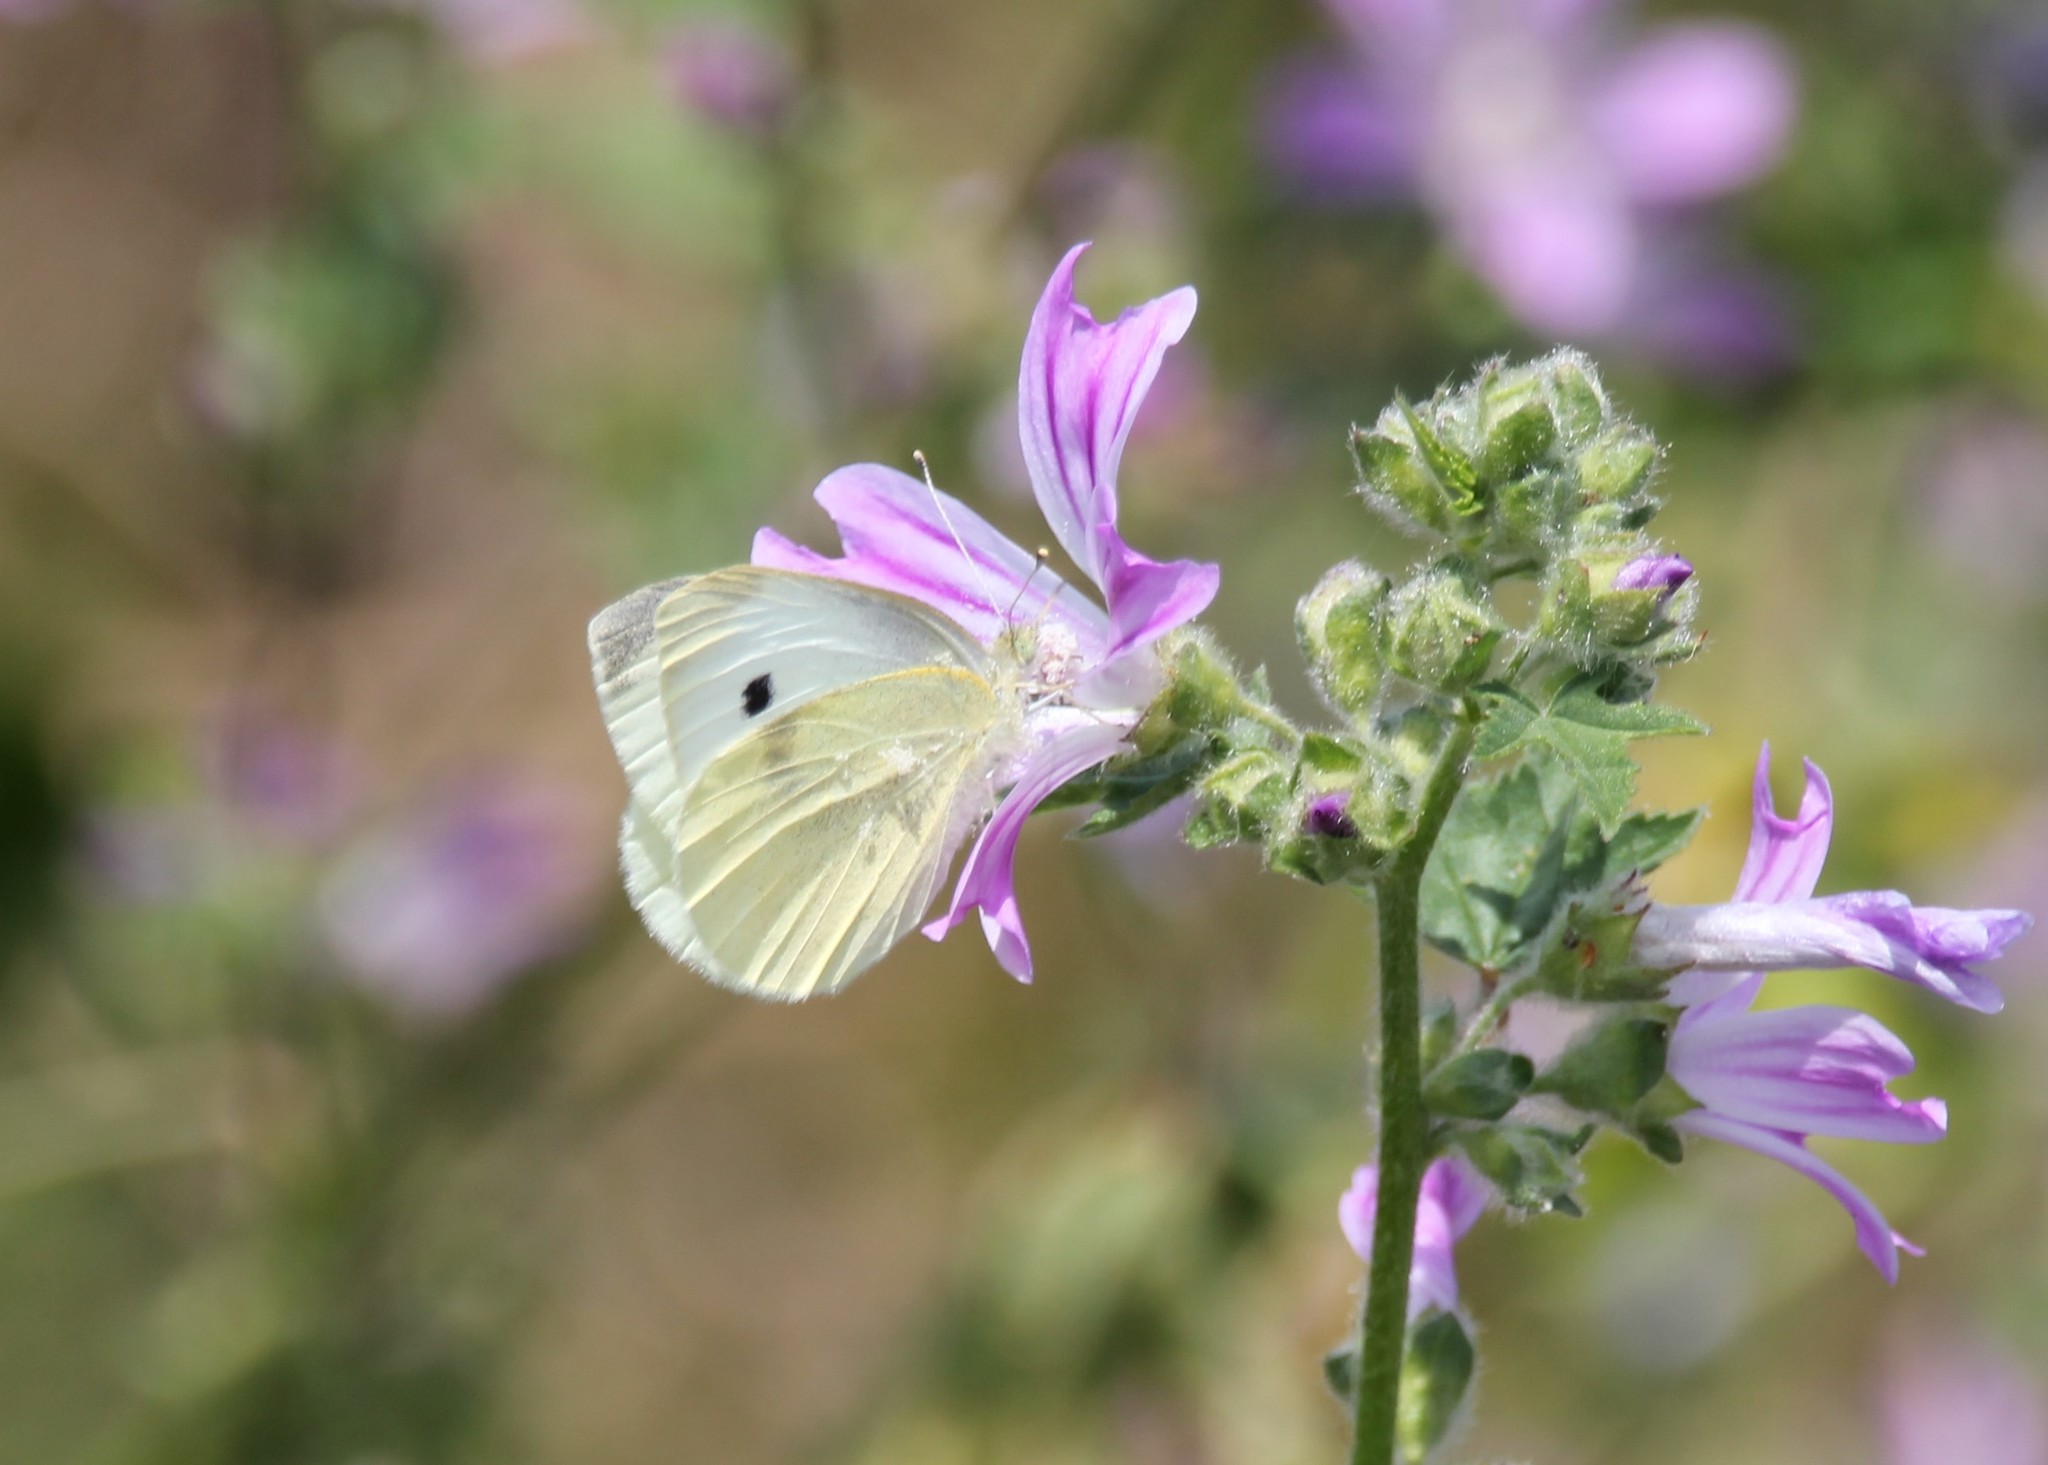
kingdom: Animalia
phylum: Arthropoda
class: Insecta
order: Lepidoptera
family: Pieridae
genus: Pieris
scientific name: Pieris rapae
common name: Small white
